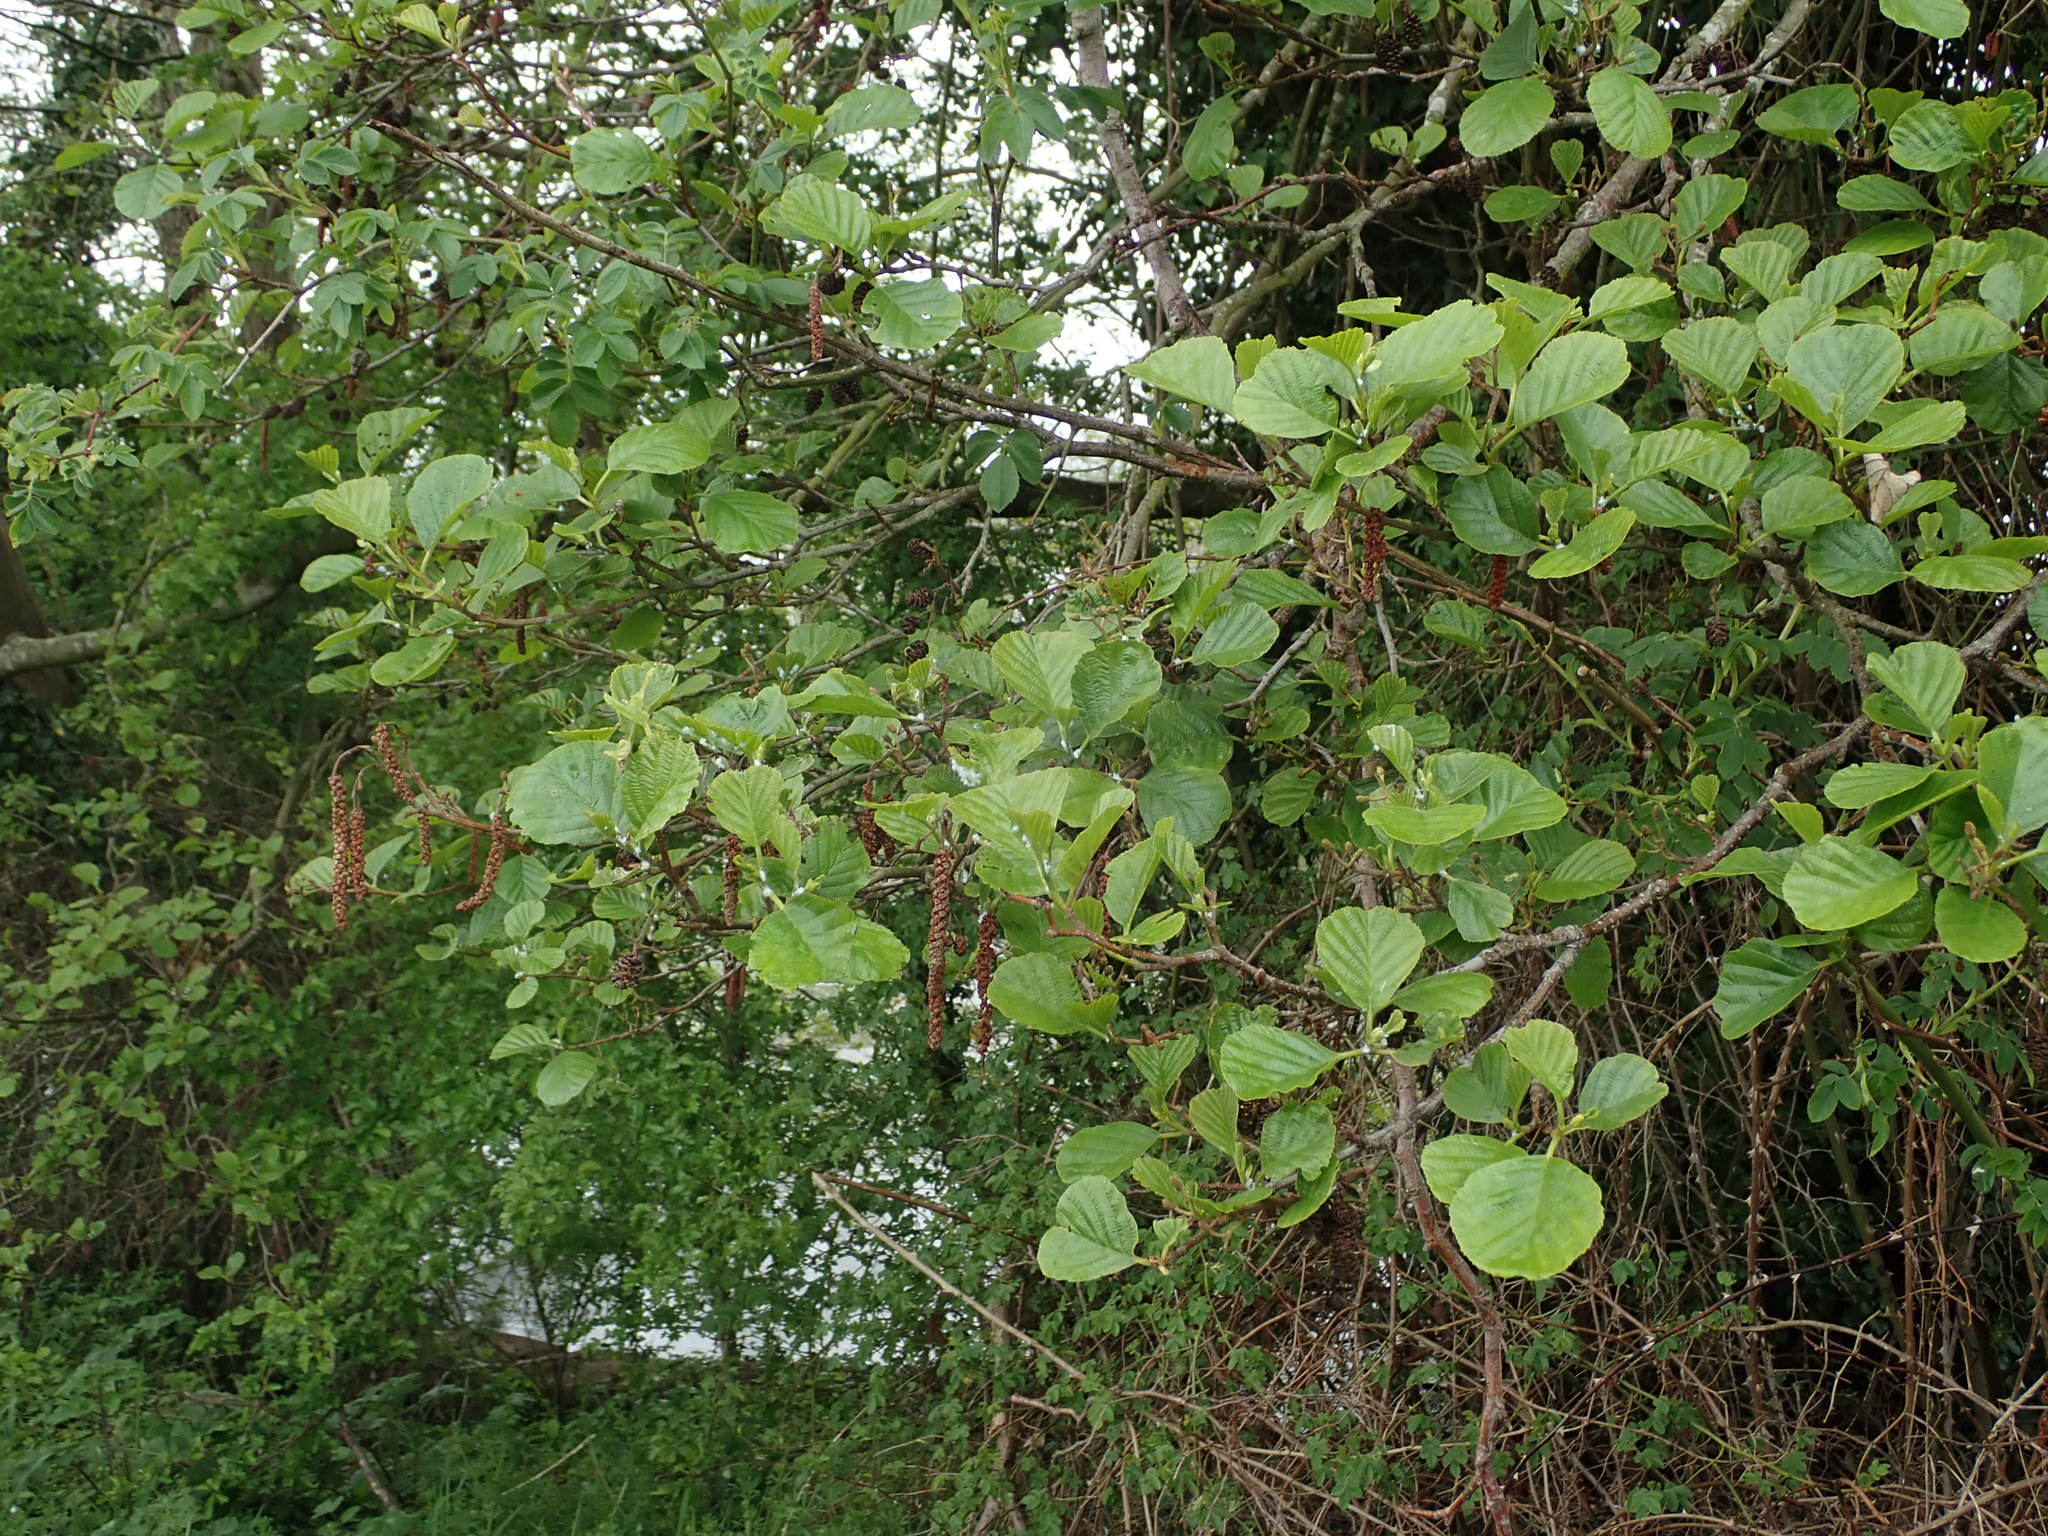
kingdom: Plantae
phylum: Tracheophyta
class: Magnoliopsida
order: Fagales
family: Betulaceae
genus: Alnus
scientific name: Alnus glutinosa
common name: Black alder
